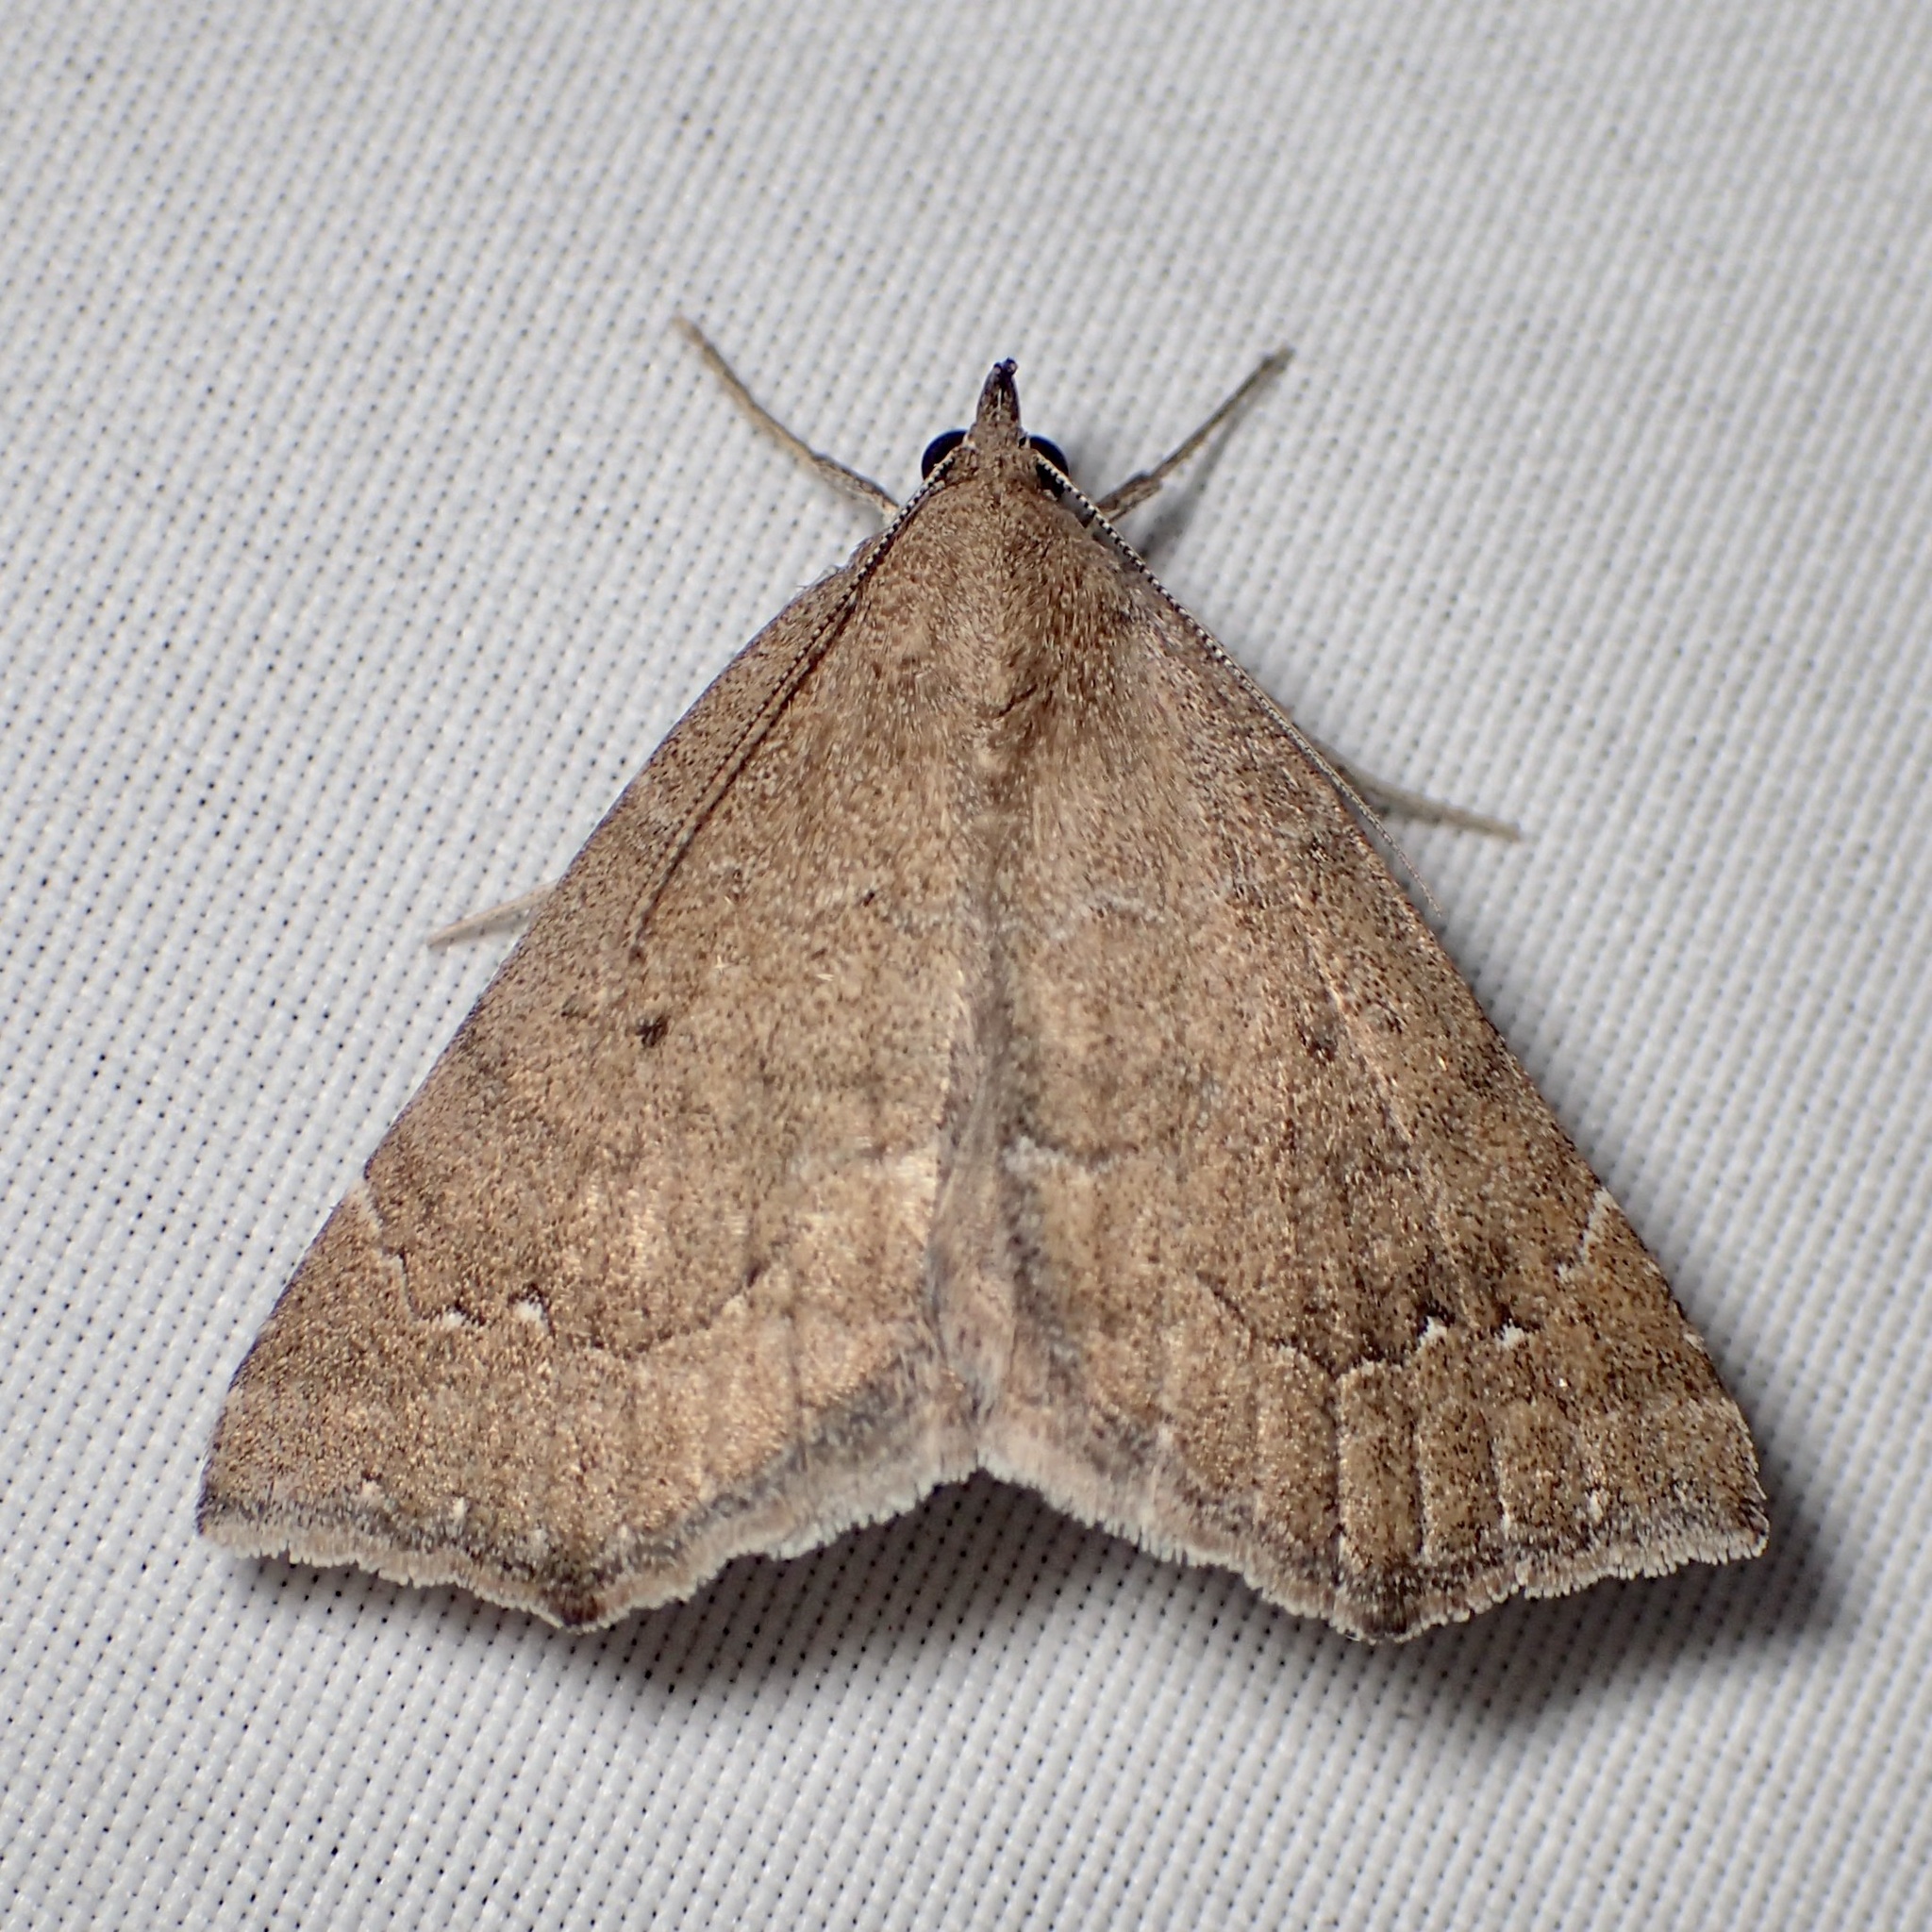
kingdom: Animalia
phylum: Arthropoda
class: Insecta
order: Lepidoptera
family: Erebidae
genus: Focillidia
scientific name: Focillidia texana
